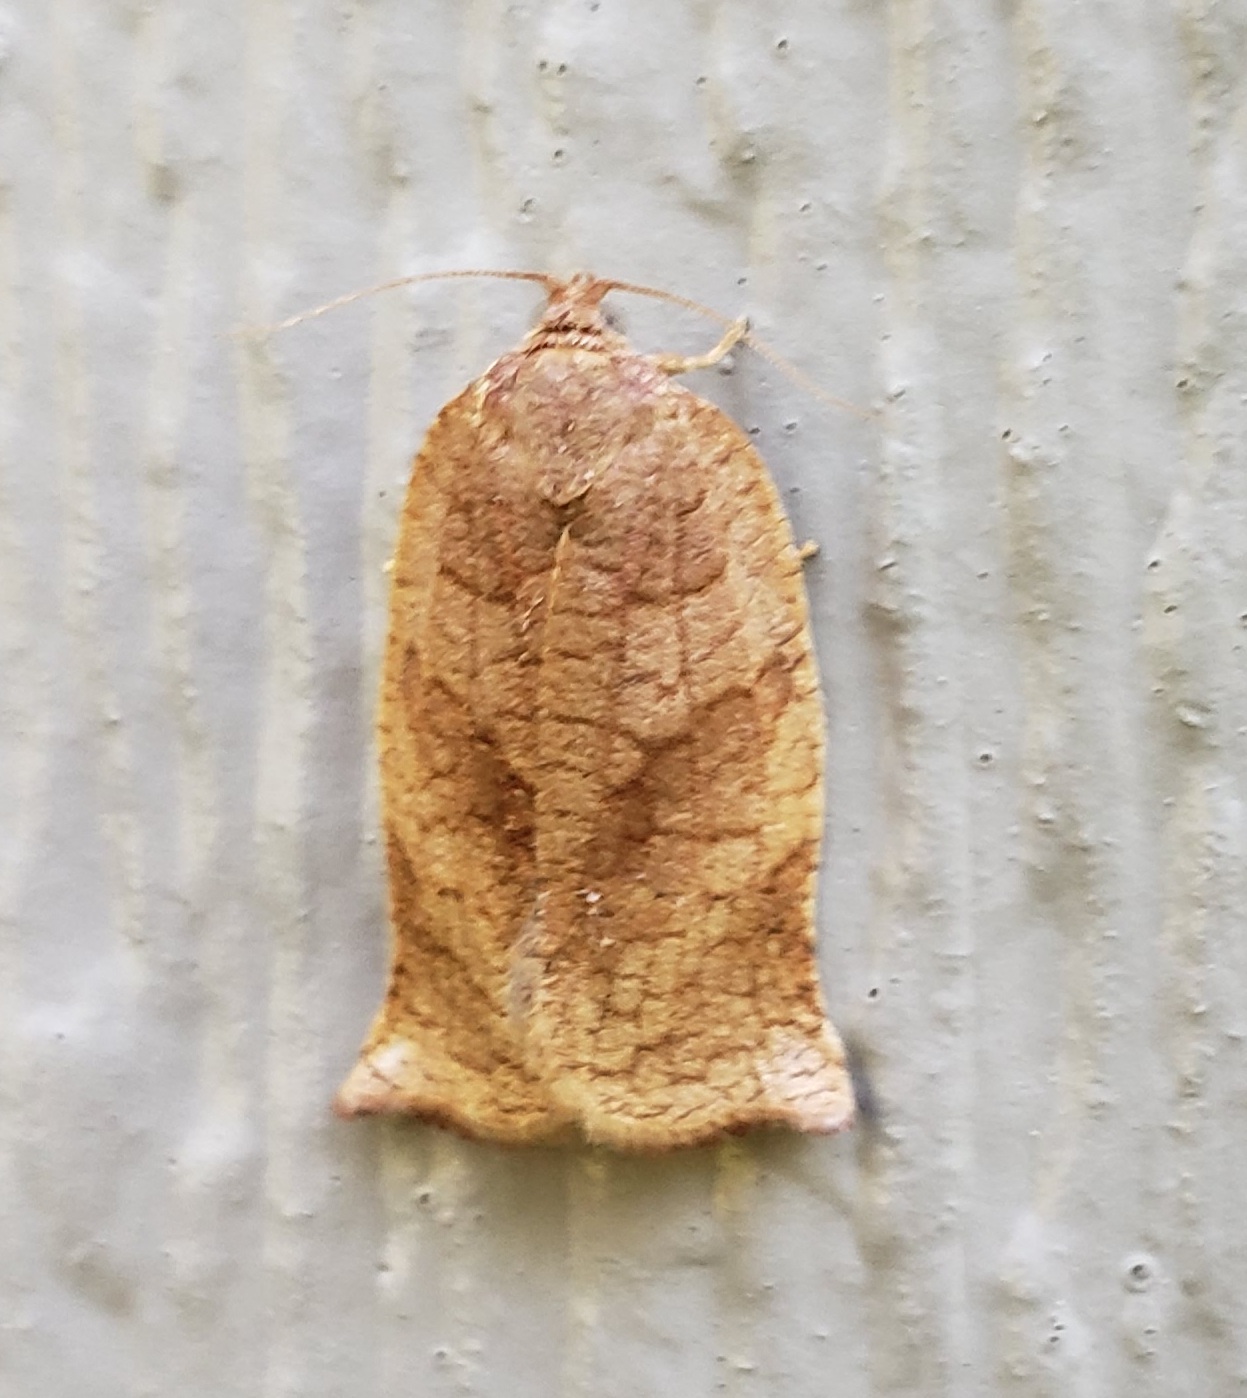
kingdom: Animalia
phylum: Arthropoda
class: Insecta
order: Lepidoptera
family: Tortricidae
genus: Choristoneura
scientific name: Choristoneura rosaceana
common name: Oblique-banded leafroller moth
